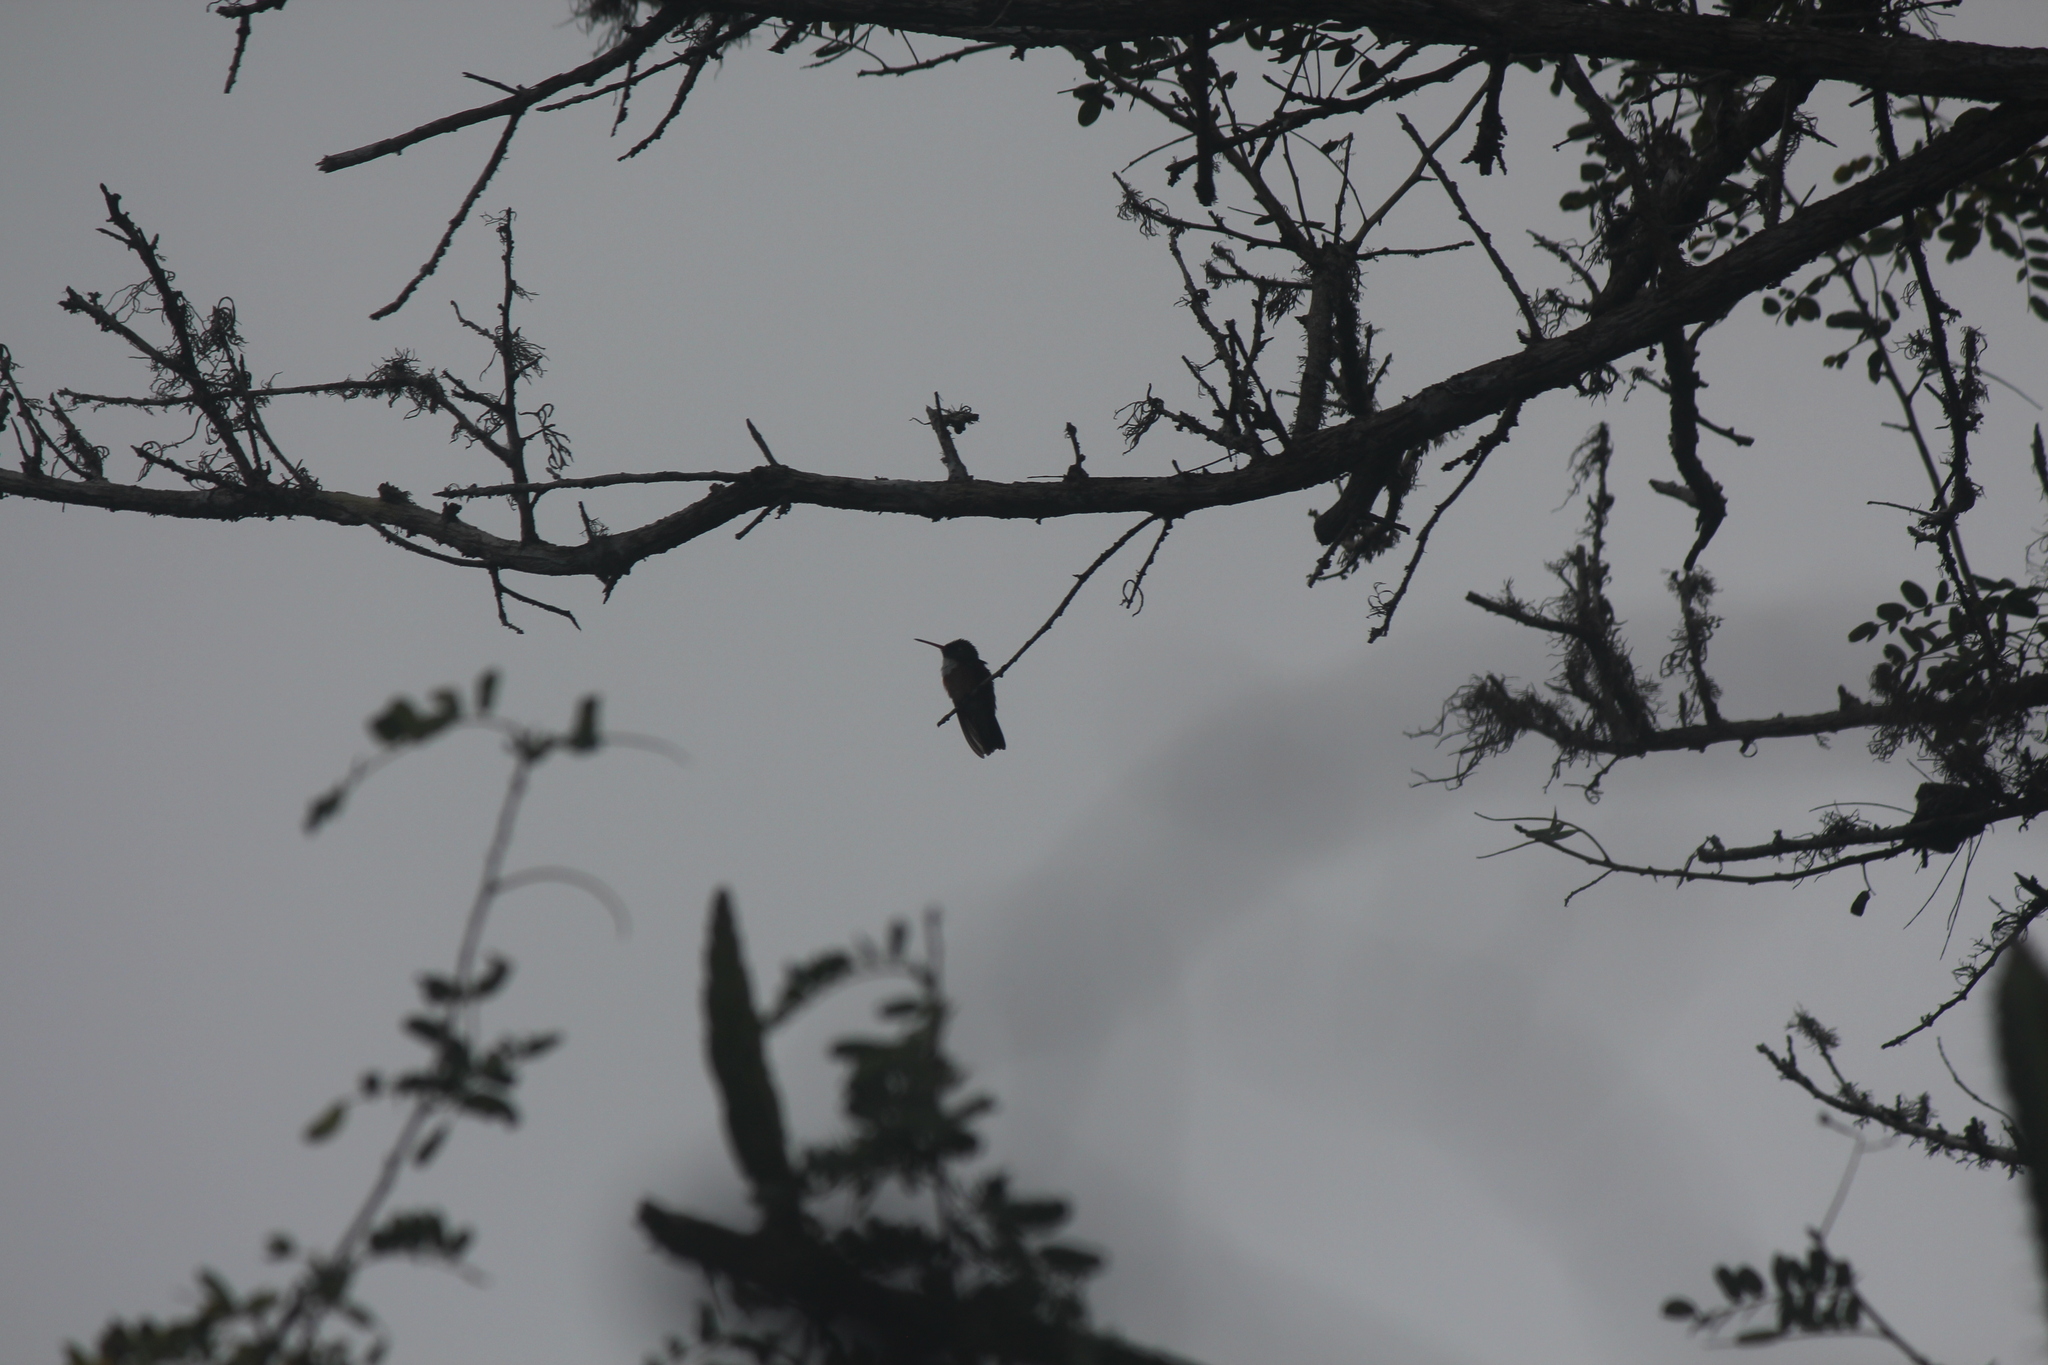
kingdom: Animalia
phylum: Chordata
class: Aves
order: Apodiformes
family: Trochilidae
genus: Amazilis
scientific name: Amazilis amazilia
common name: Amazilia hummingbird
